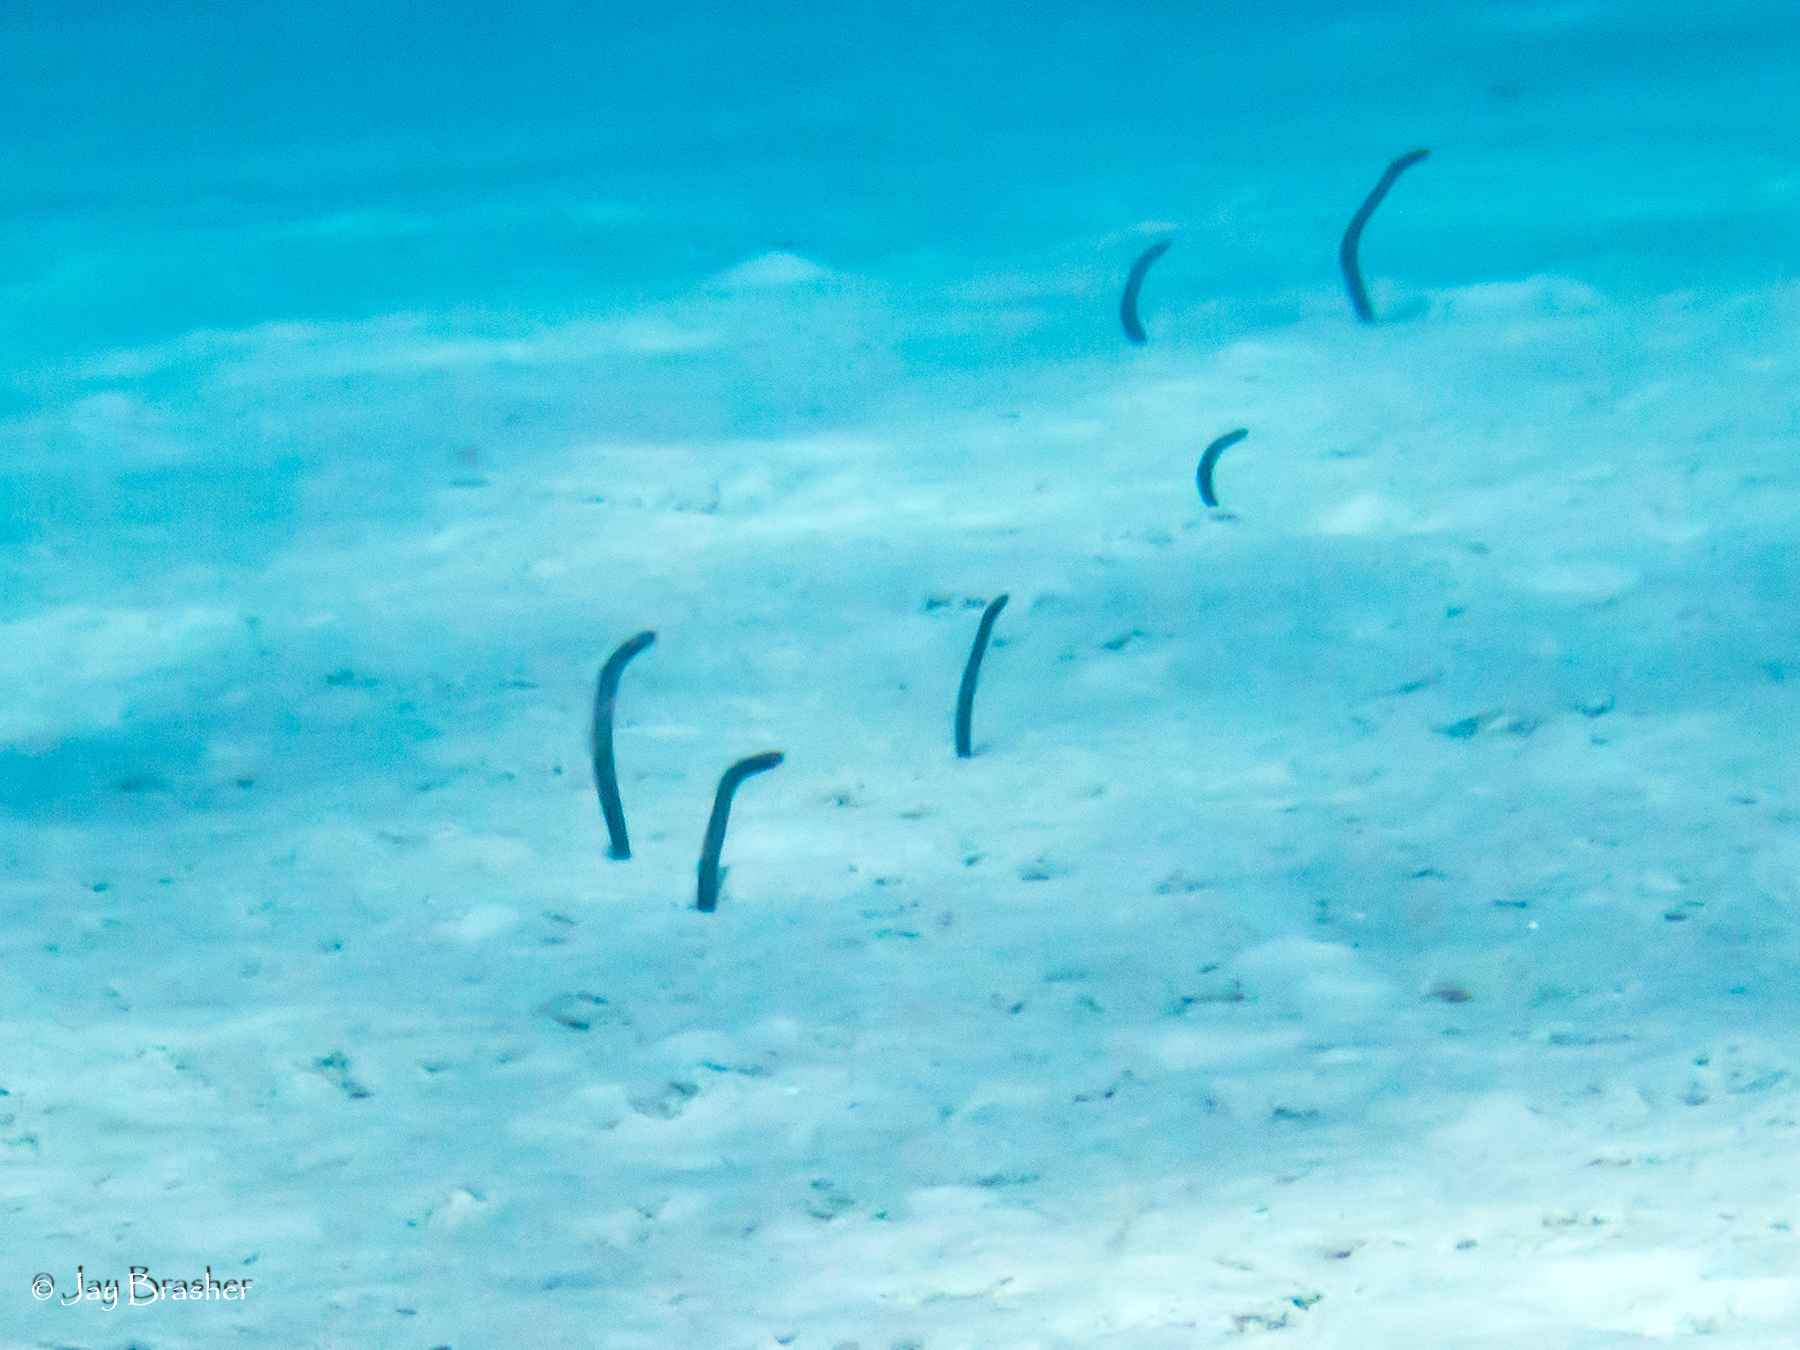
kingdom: Animalia
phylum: Chordata
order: Anguilliformes
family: Congridae
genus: Heteroconger
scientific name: Heteroconger longissimus
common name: Garden eel
